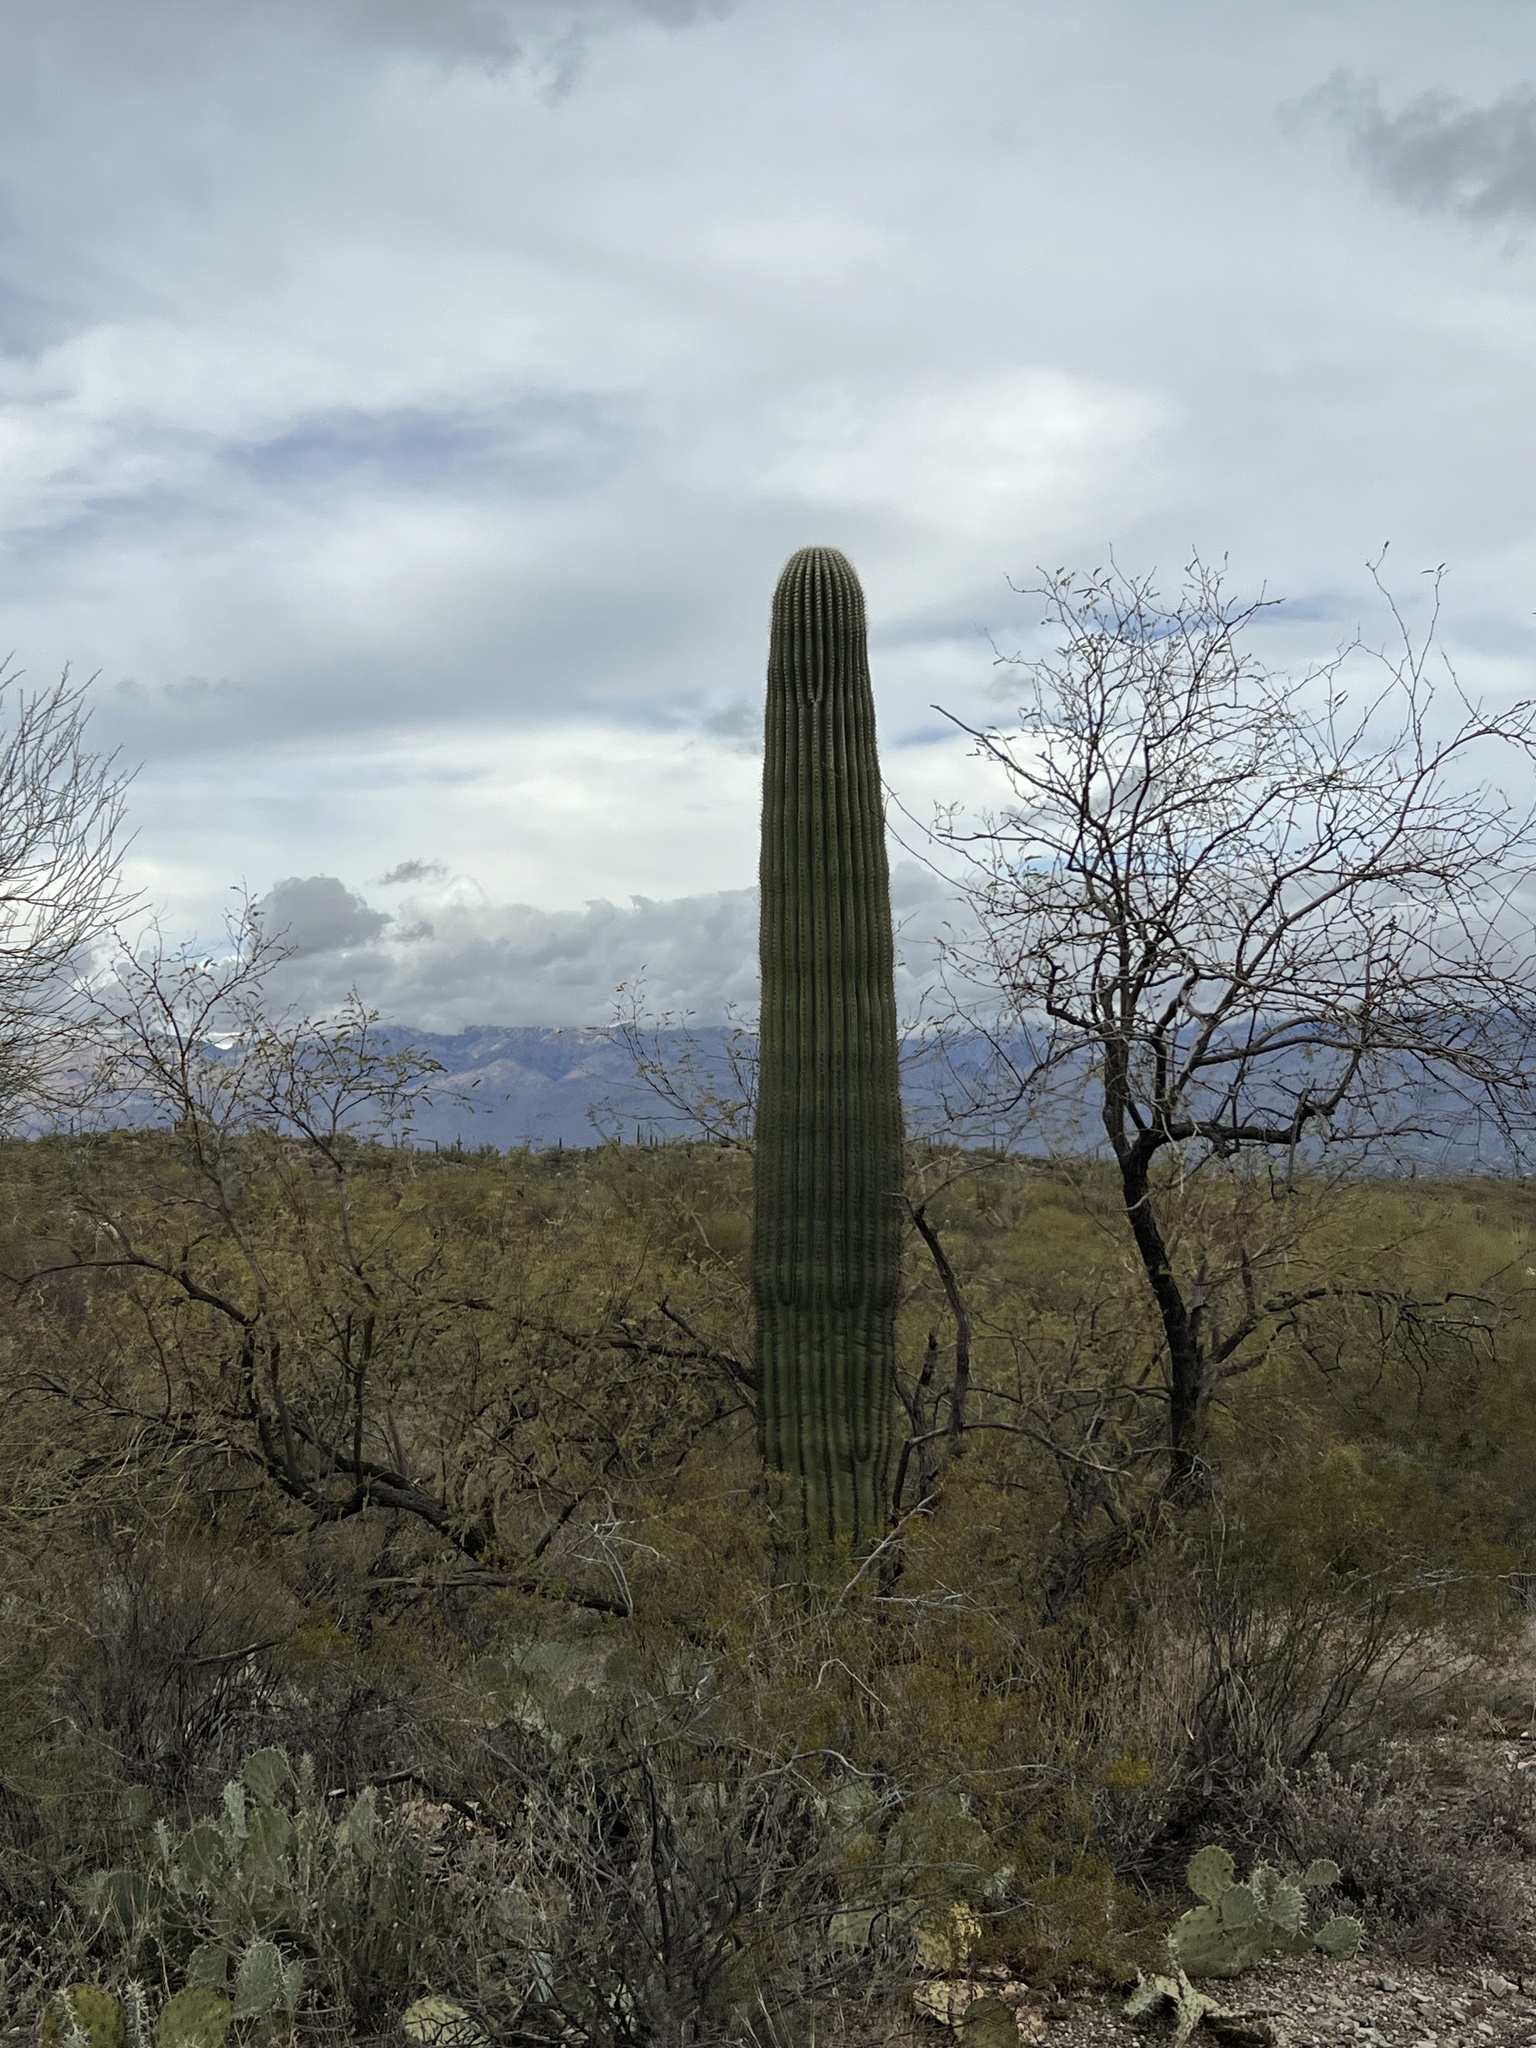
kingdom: Plantae
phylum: Tracheophyta
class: Magnoliopsida
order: Caryophyllales
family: Cactaceae
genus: Carnegiea
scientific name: Carnegiea gigantea
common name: Saguaro
